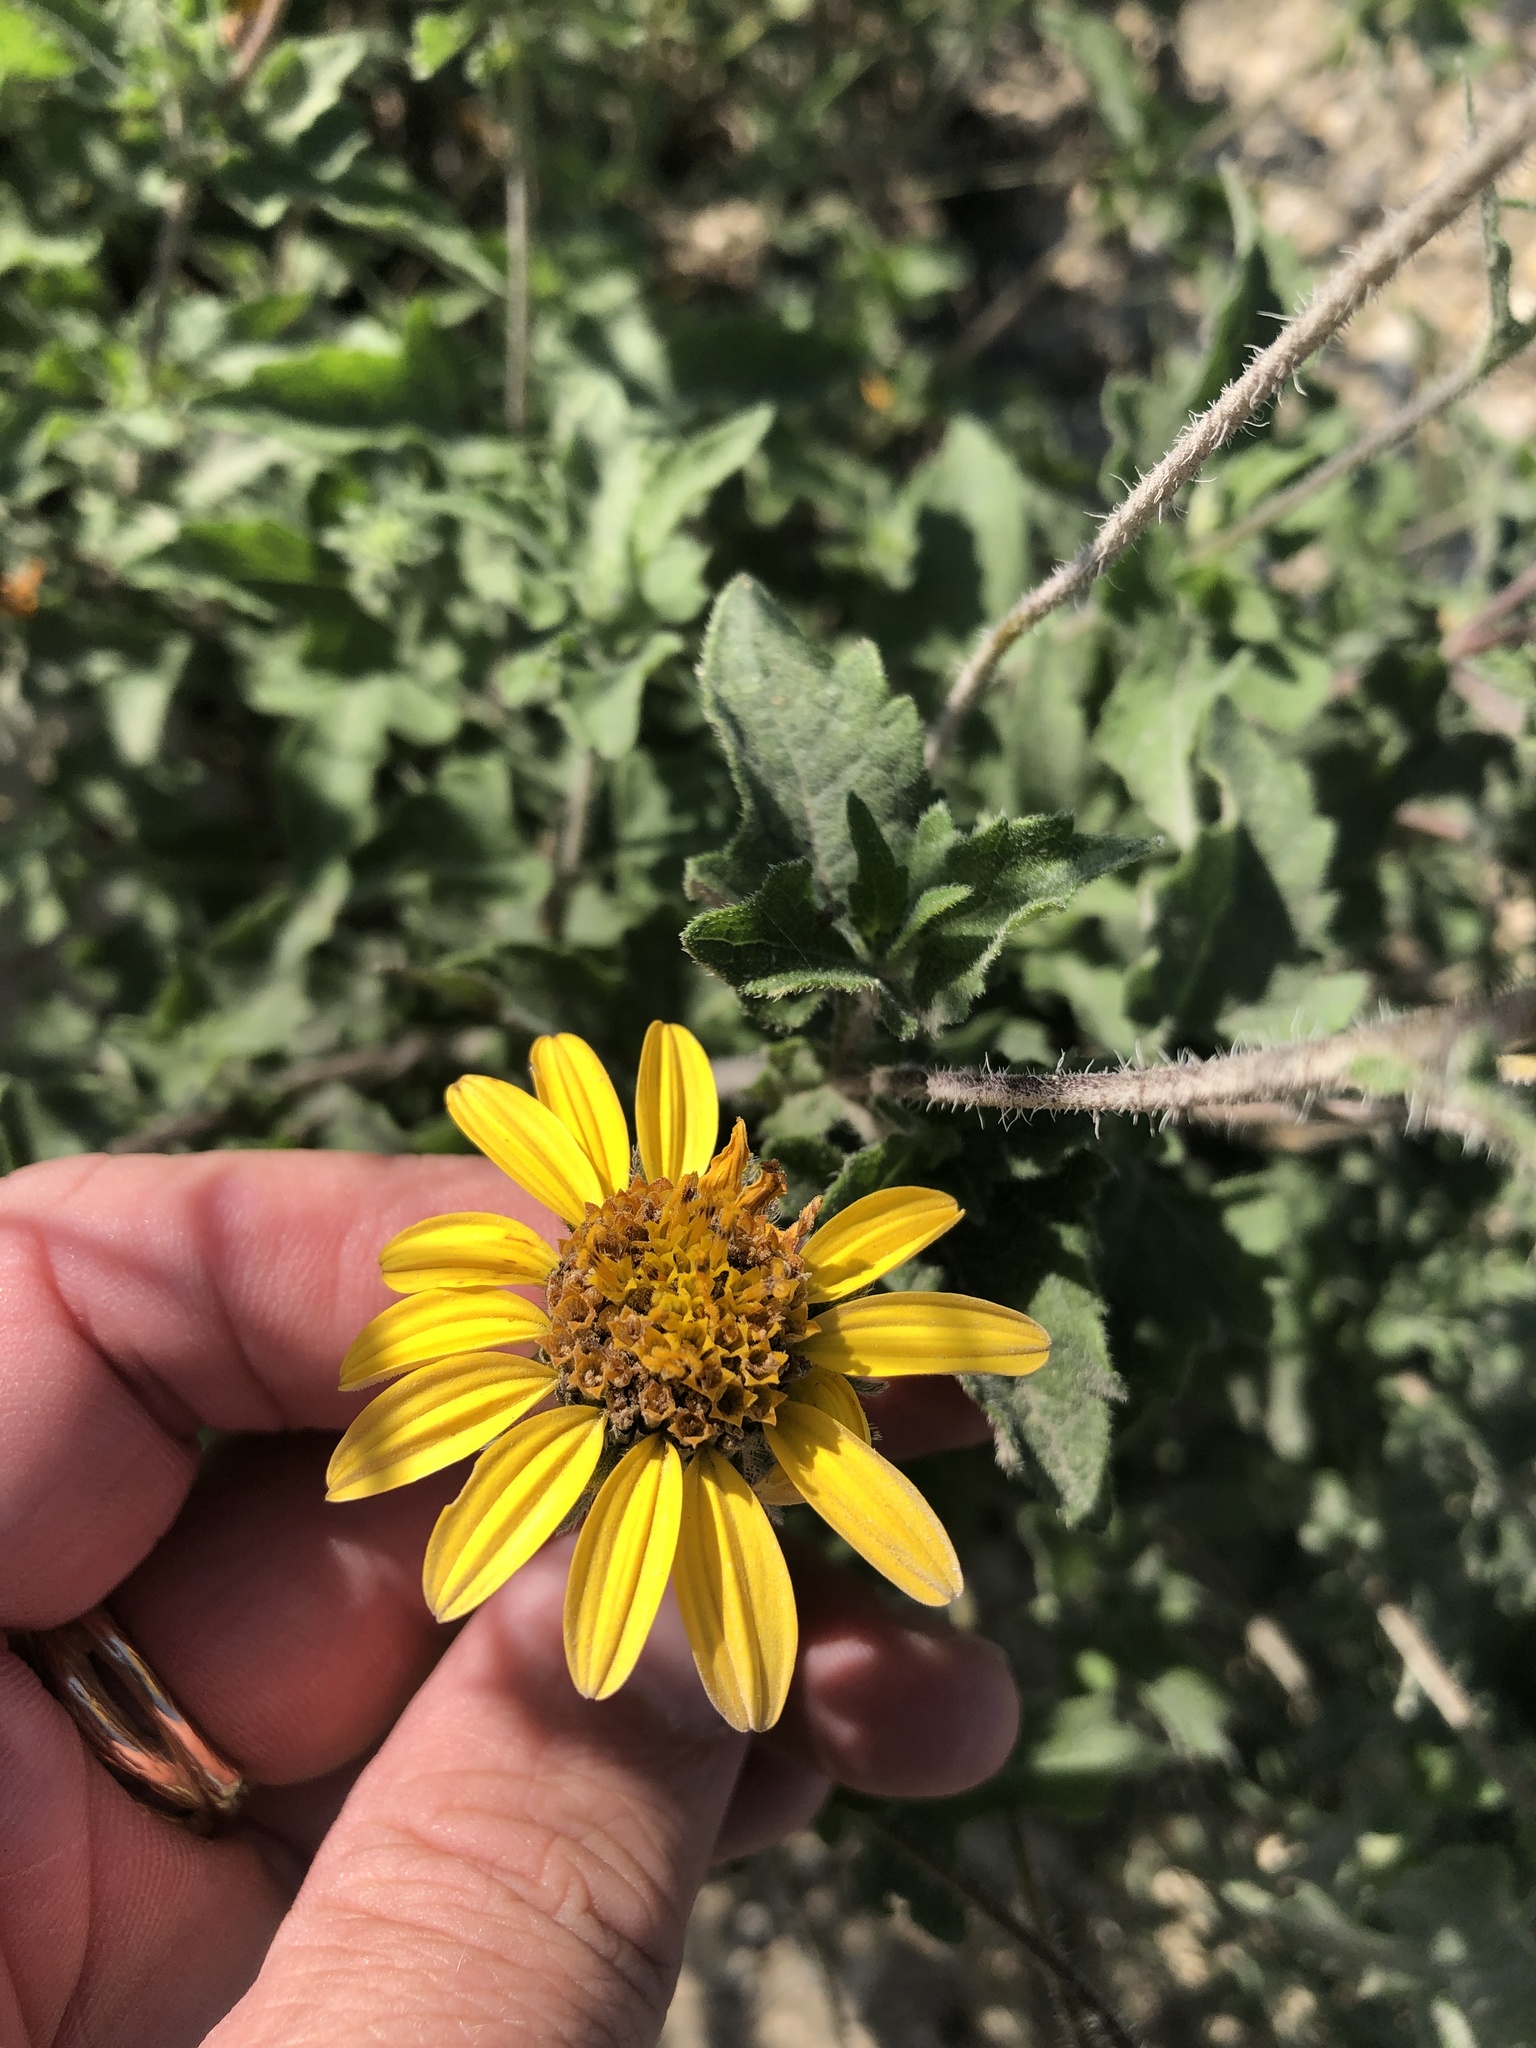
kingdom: Plantae
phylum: Tracheophyta
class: Magnoliopsida
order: Asterales
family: Asteraceae
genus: Simsia
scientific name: Simsia calva
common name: Awnless bush-sunflower
